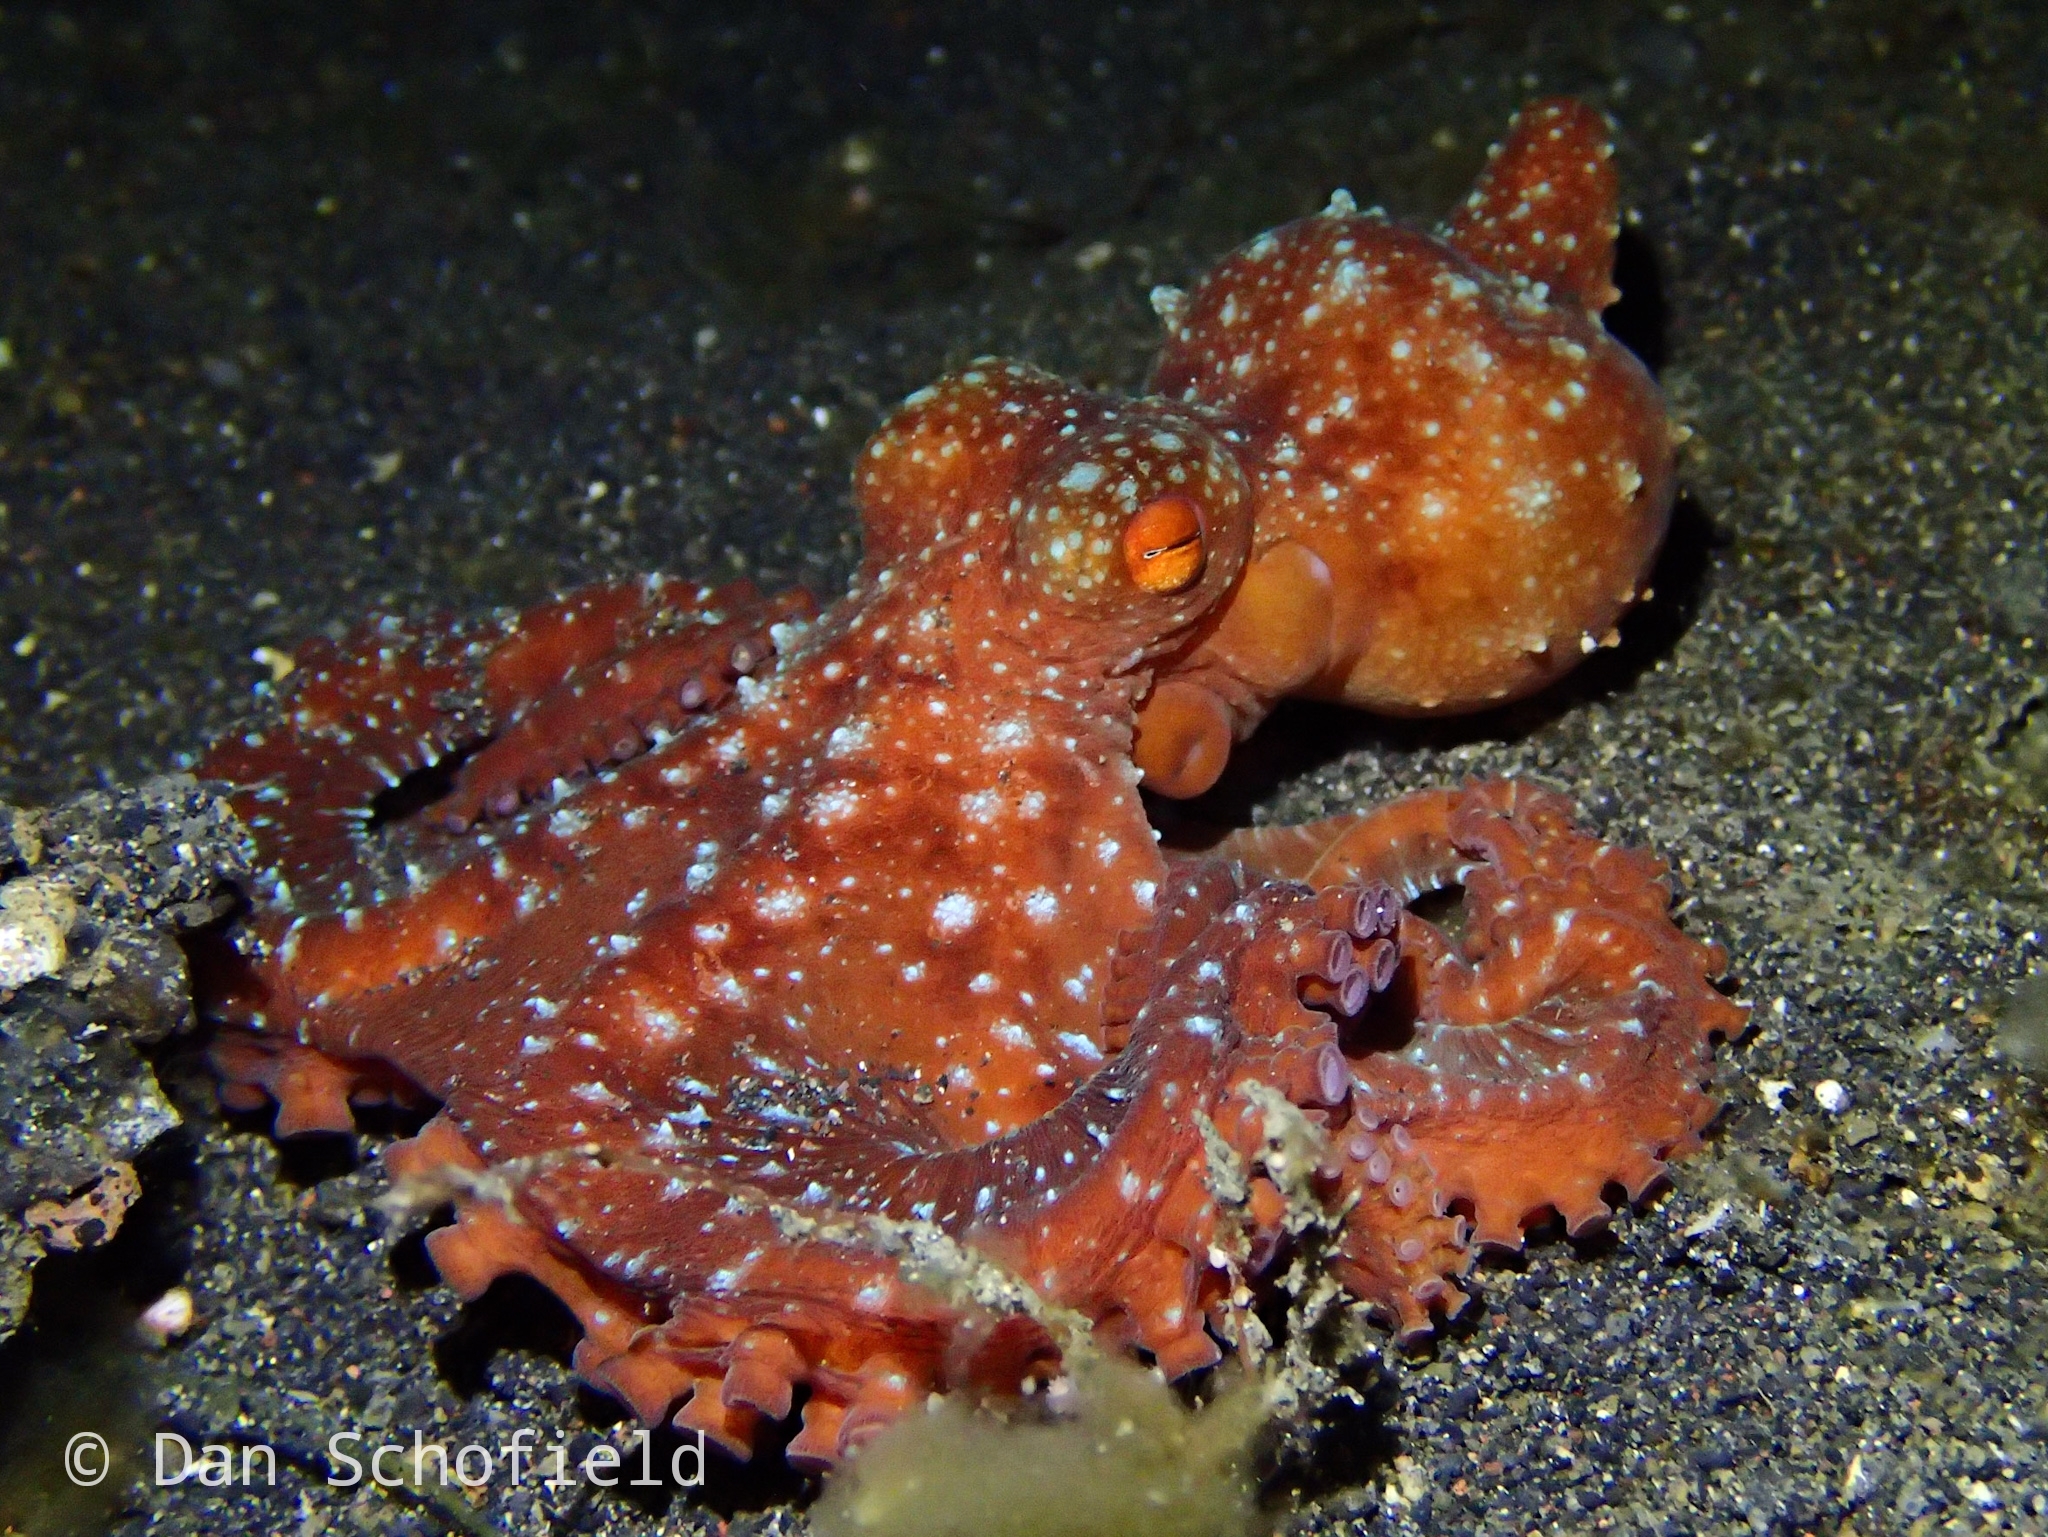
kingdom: Animalia
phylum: Mollusca
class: Cephalopoda
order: Octopoda
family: Octopodidae
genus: Callistoctopus
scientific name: Callistoctopus luteus
